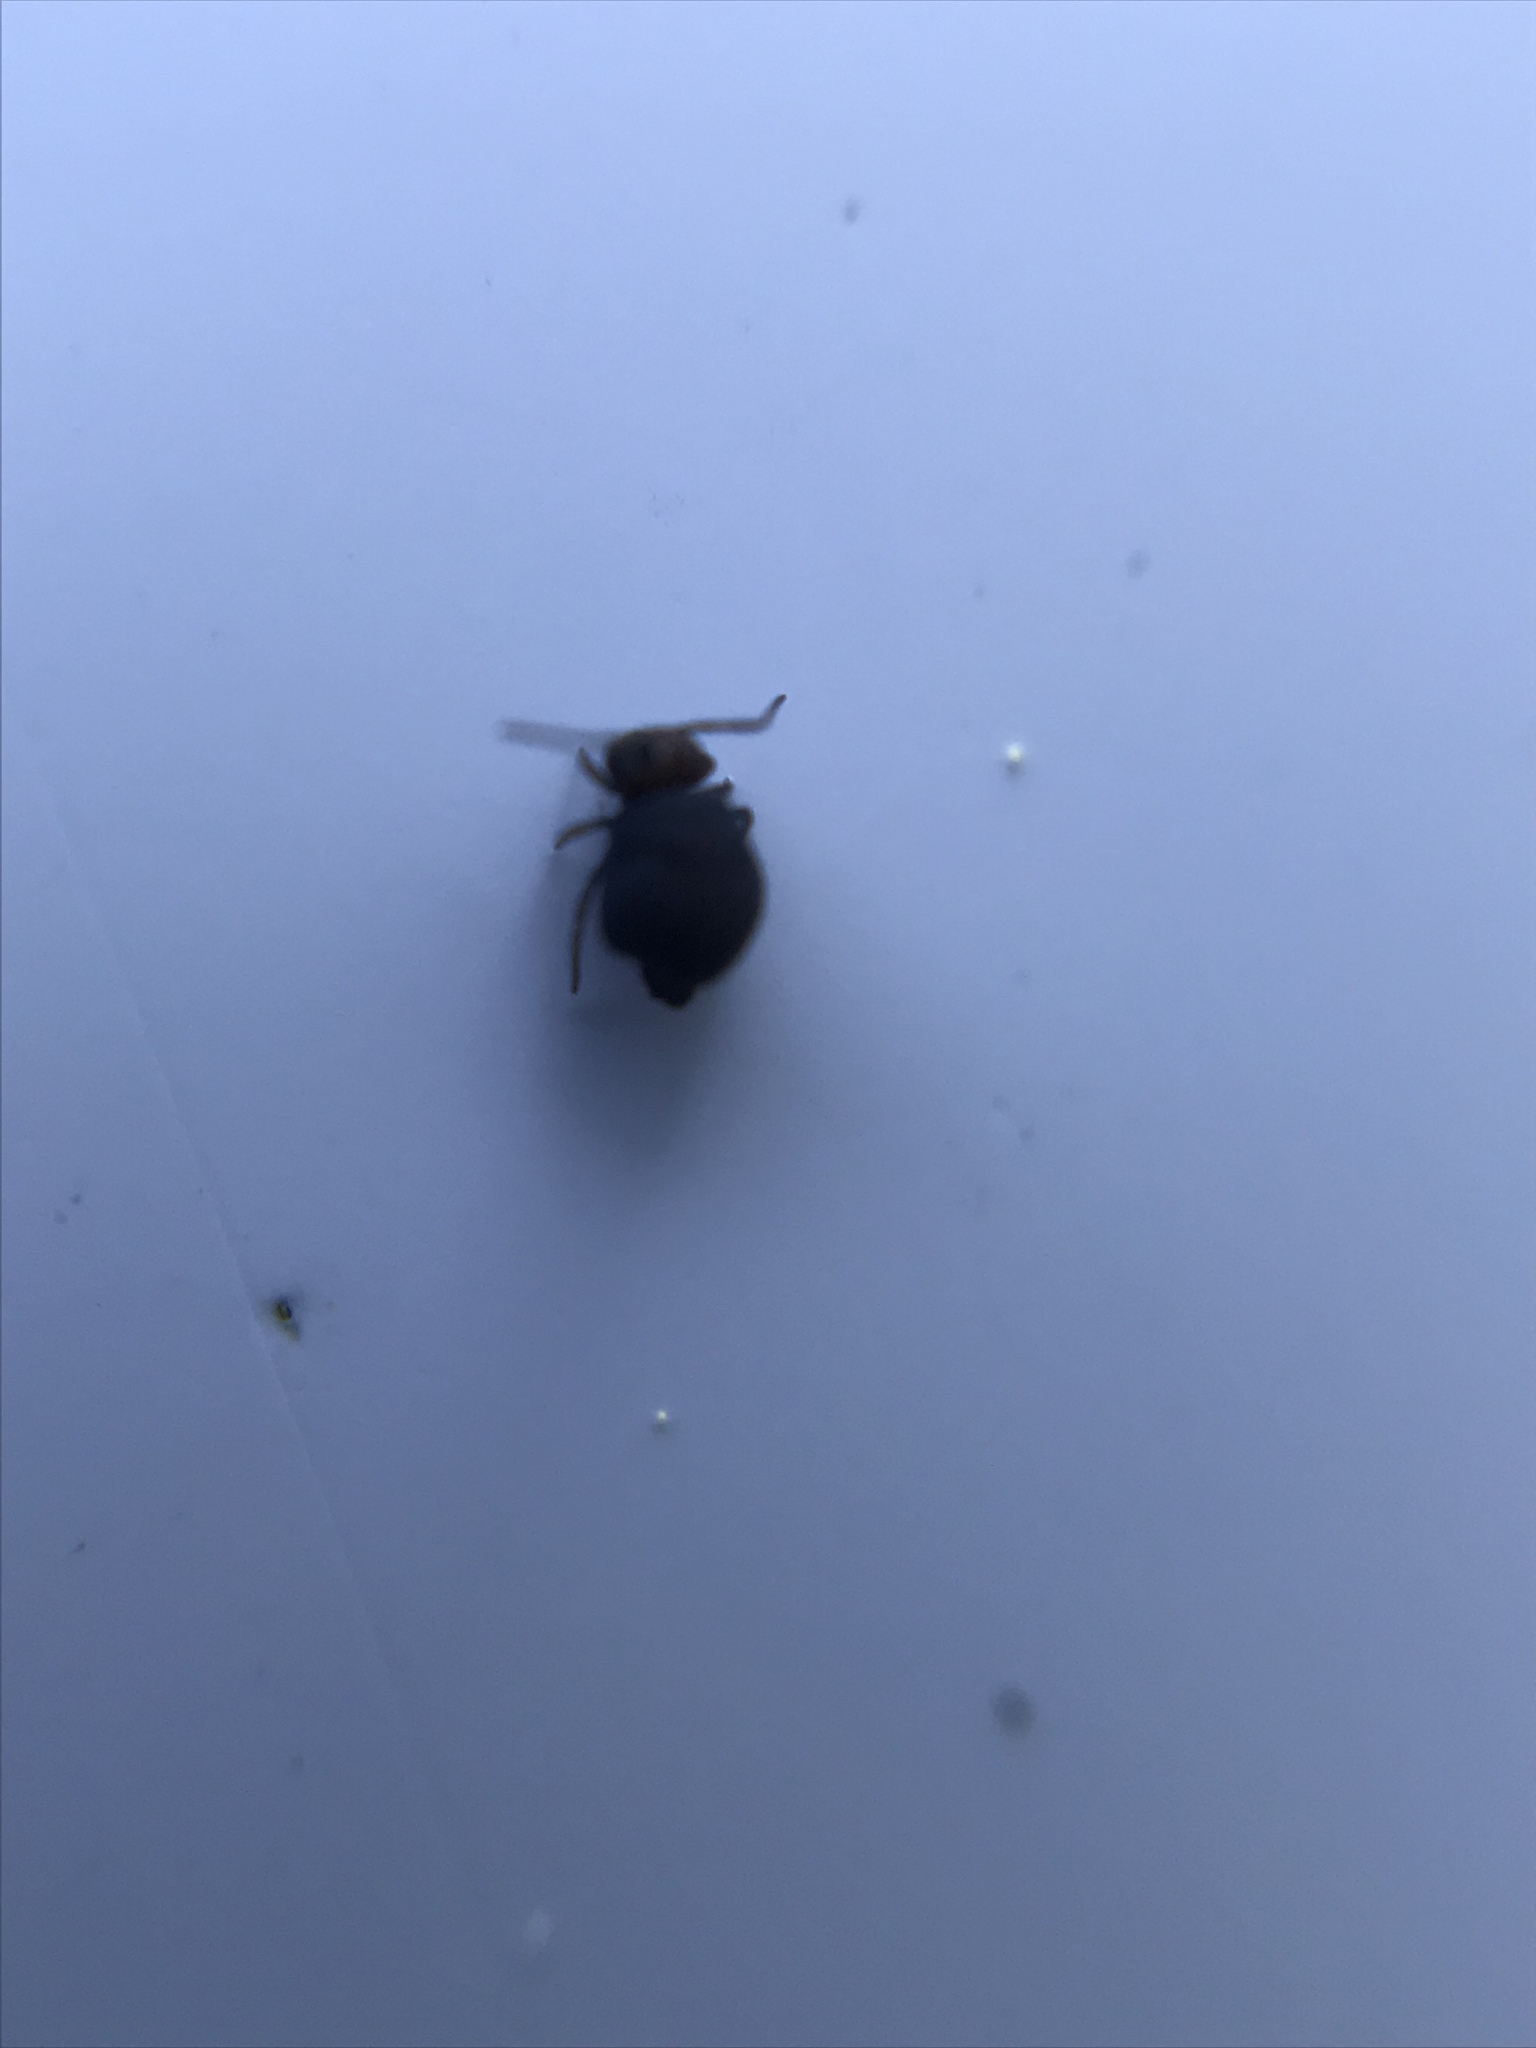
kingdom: Animalia
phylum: Arthropoda
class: Collembola
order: Symphypleona
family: Bourletiellidae
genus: Bourletiella
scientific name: Bourletiella hortensis
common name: Garden springtail
